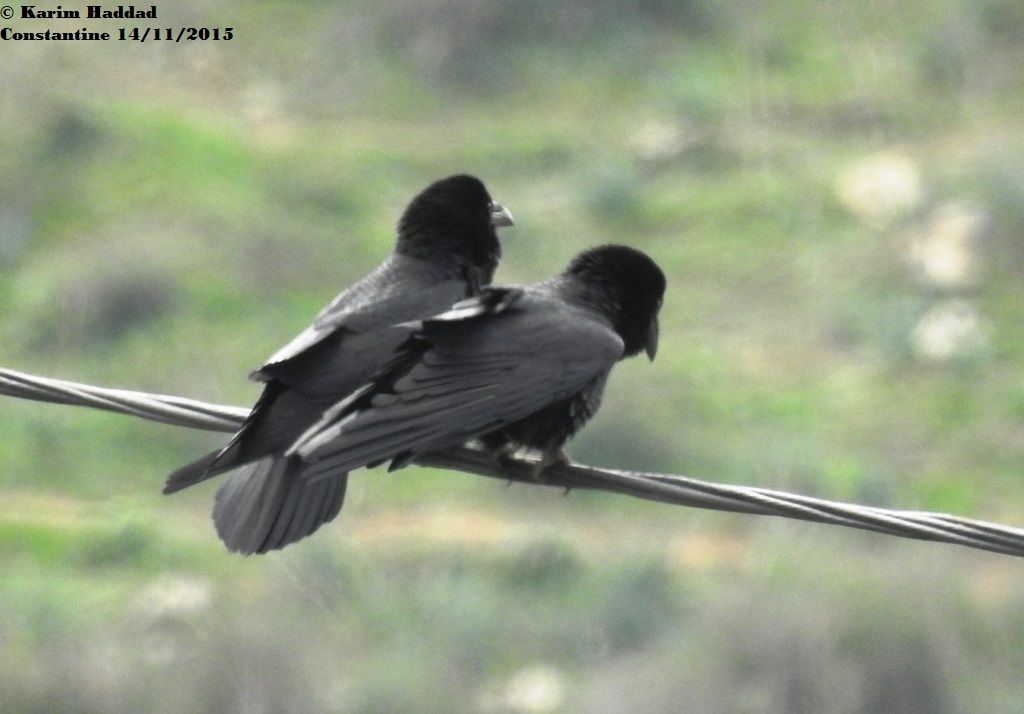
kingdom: Animalia
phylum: Chordata
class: Aves
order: Passeriformes
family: Corvidae
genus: Corvus
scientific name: Corvus corax
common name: Common raven
